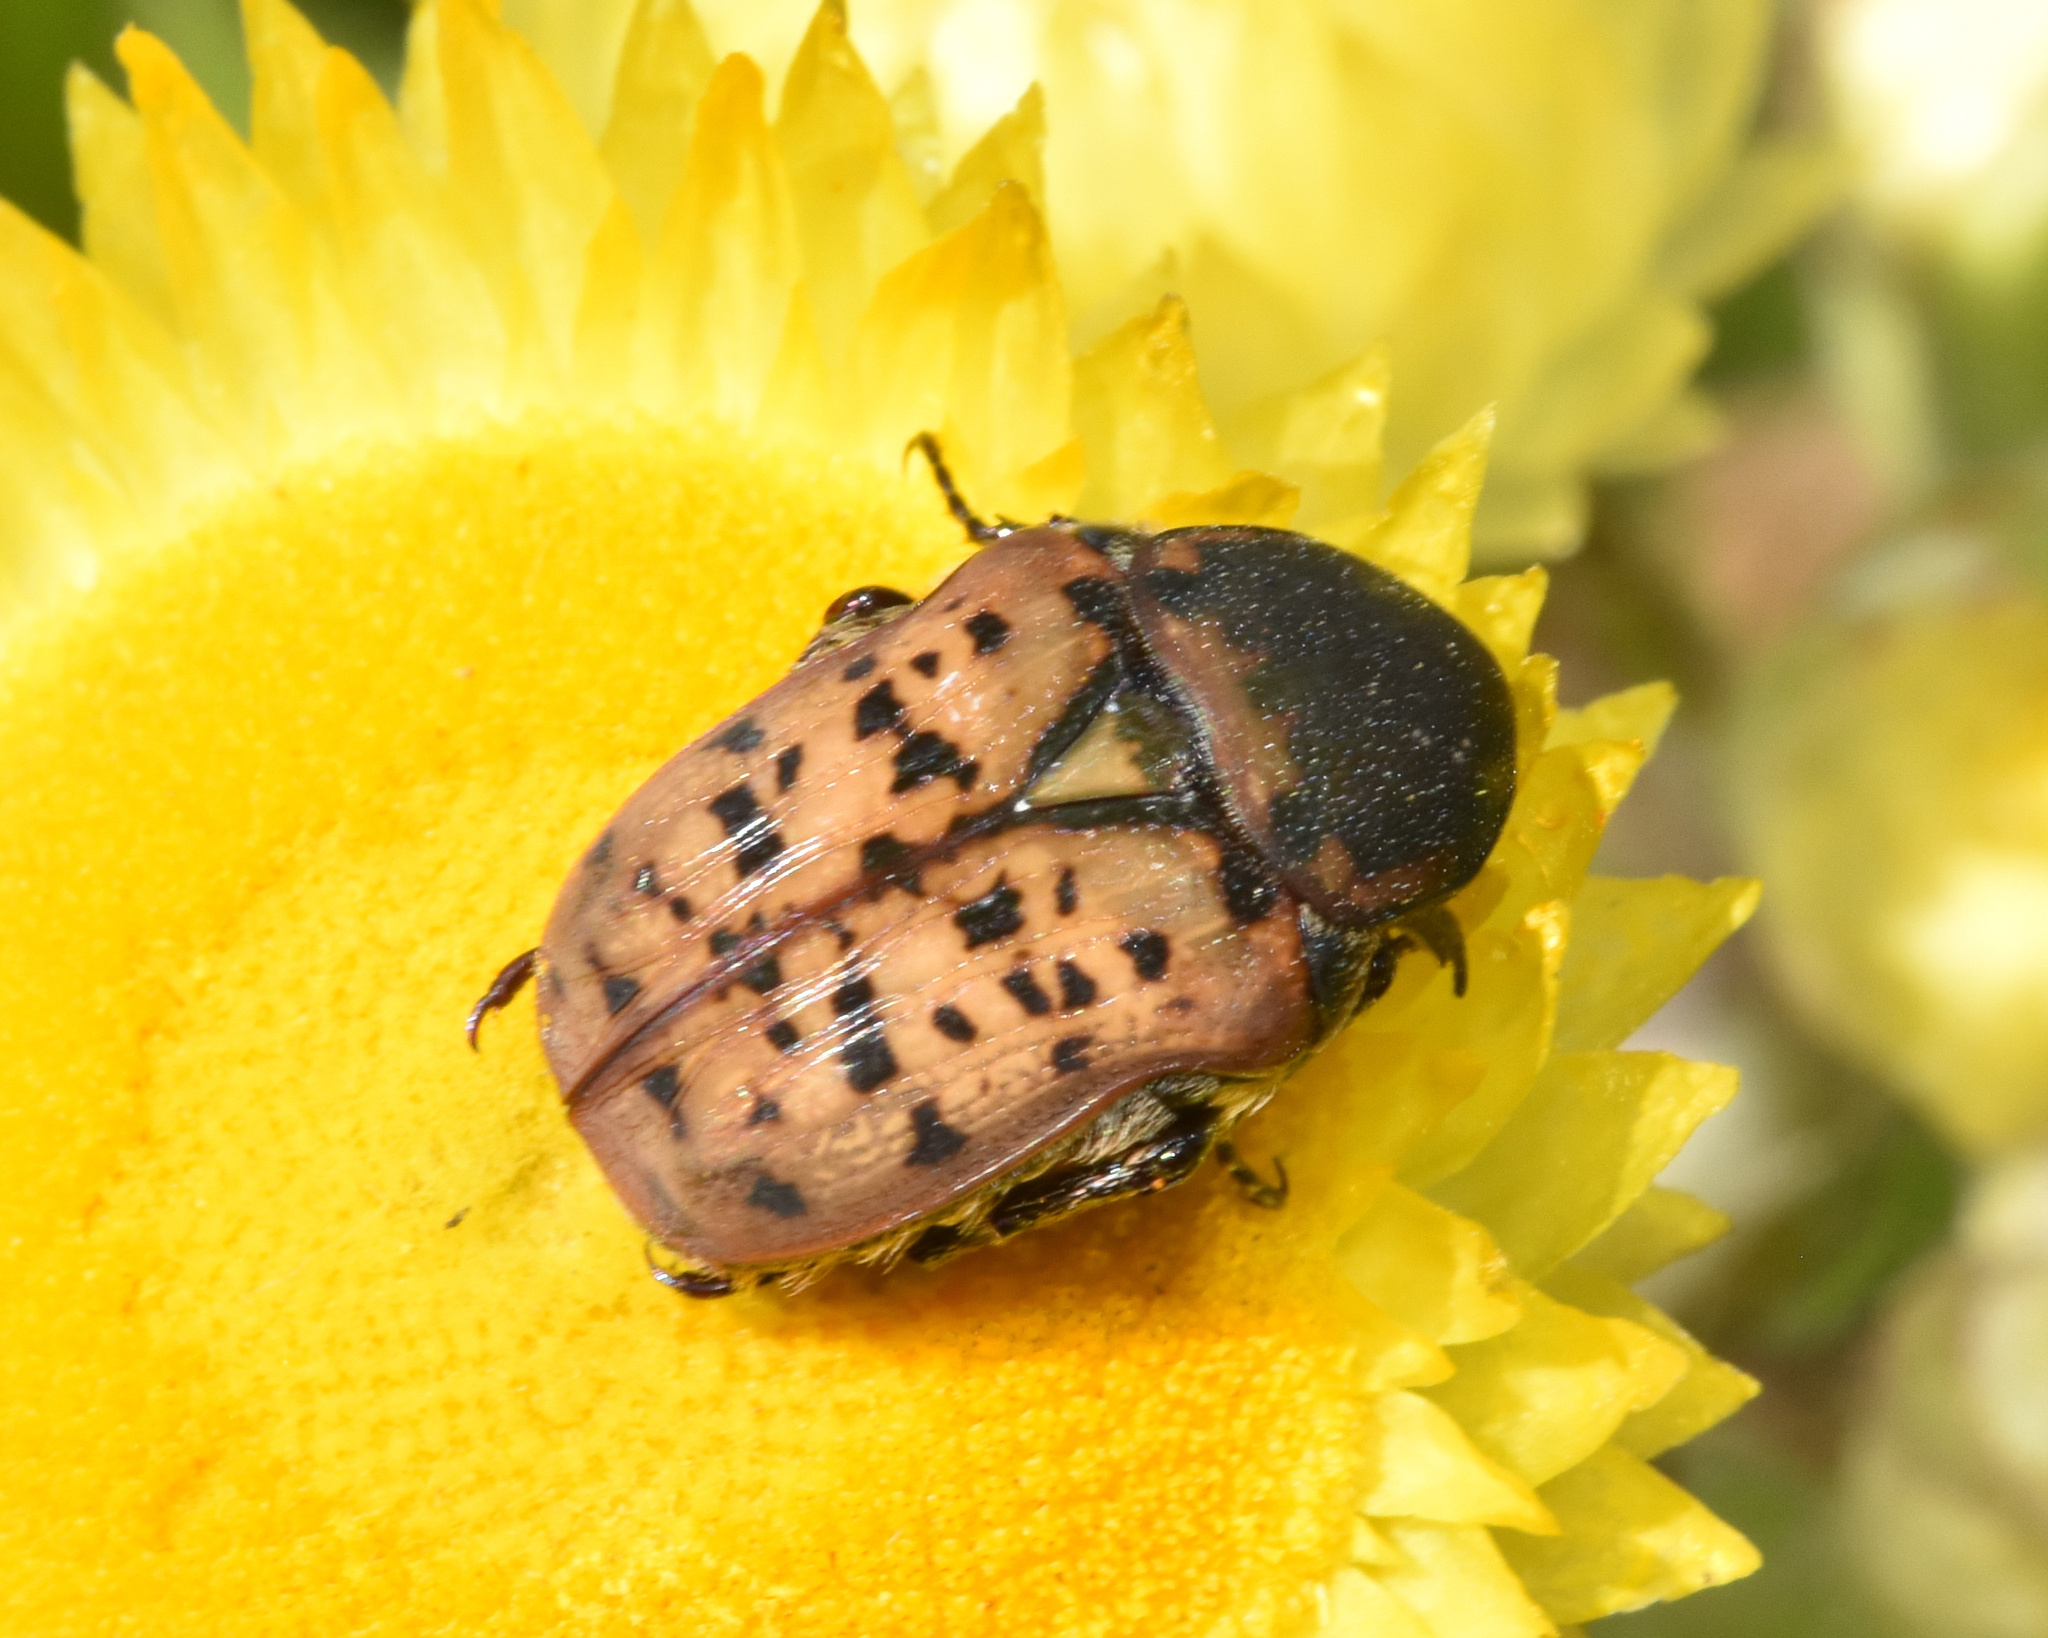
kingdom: Animalia
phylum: Arthropoda
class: Insecta
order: Coleoptera
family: Scarabaeidae
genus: Atrichelaphinis
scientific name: Atrichelaphinis tigrina
